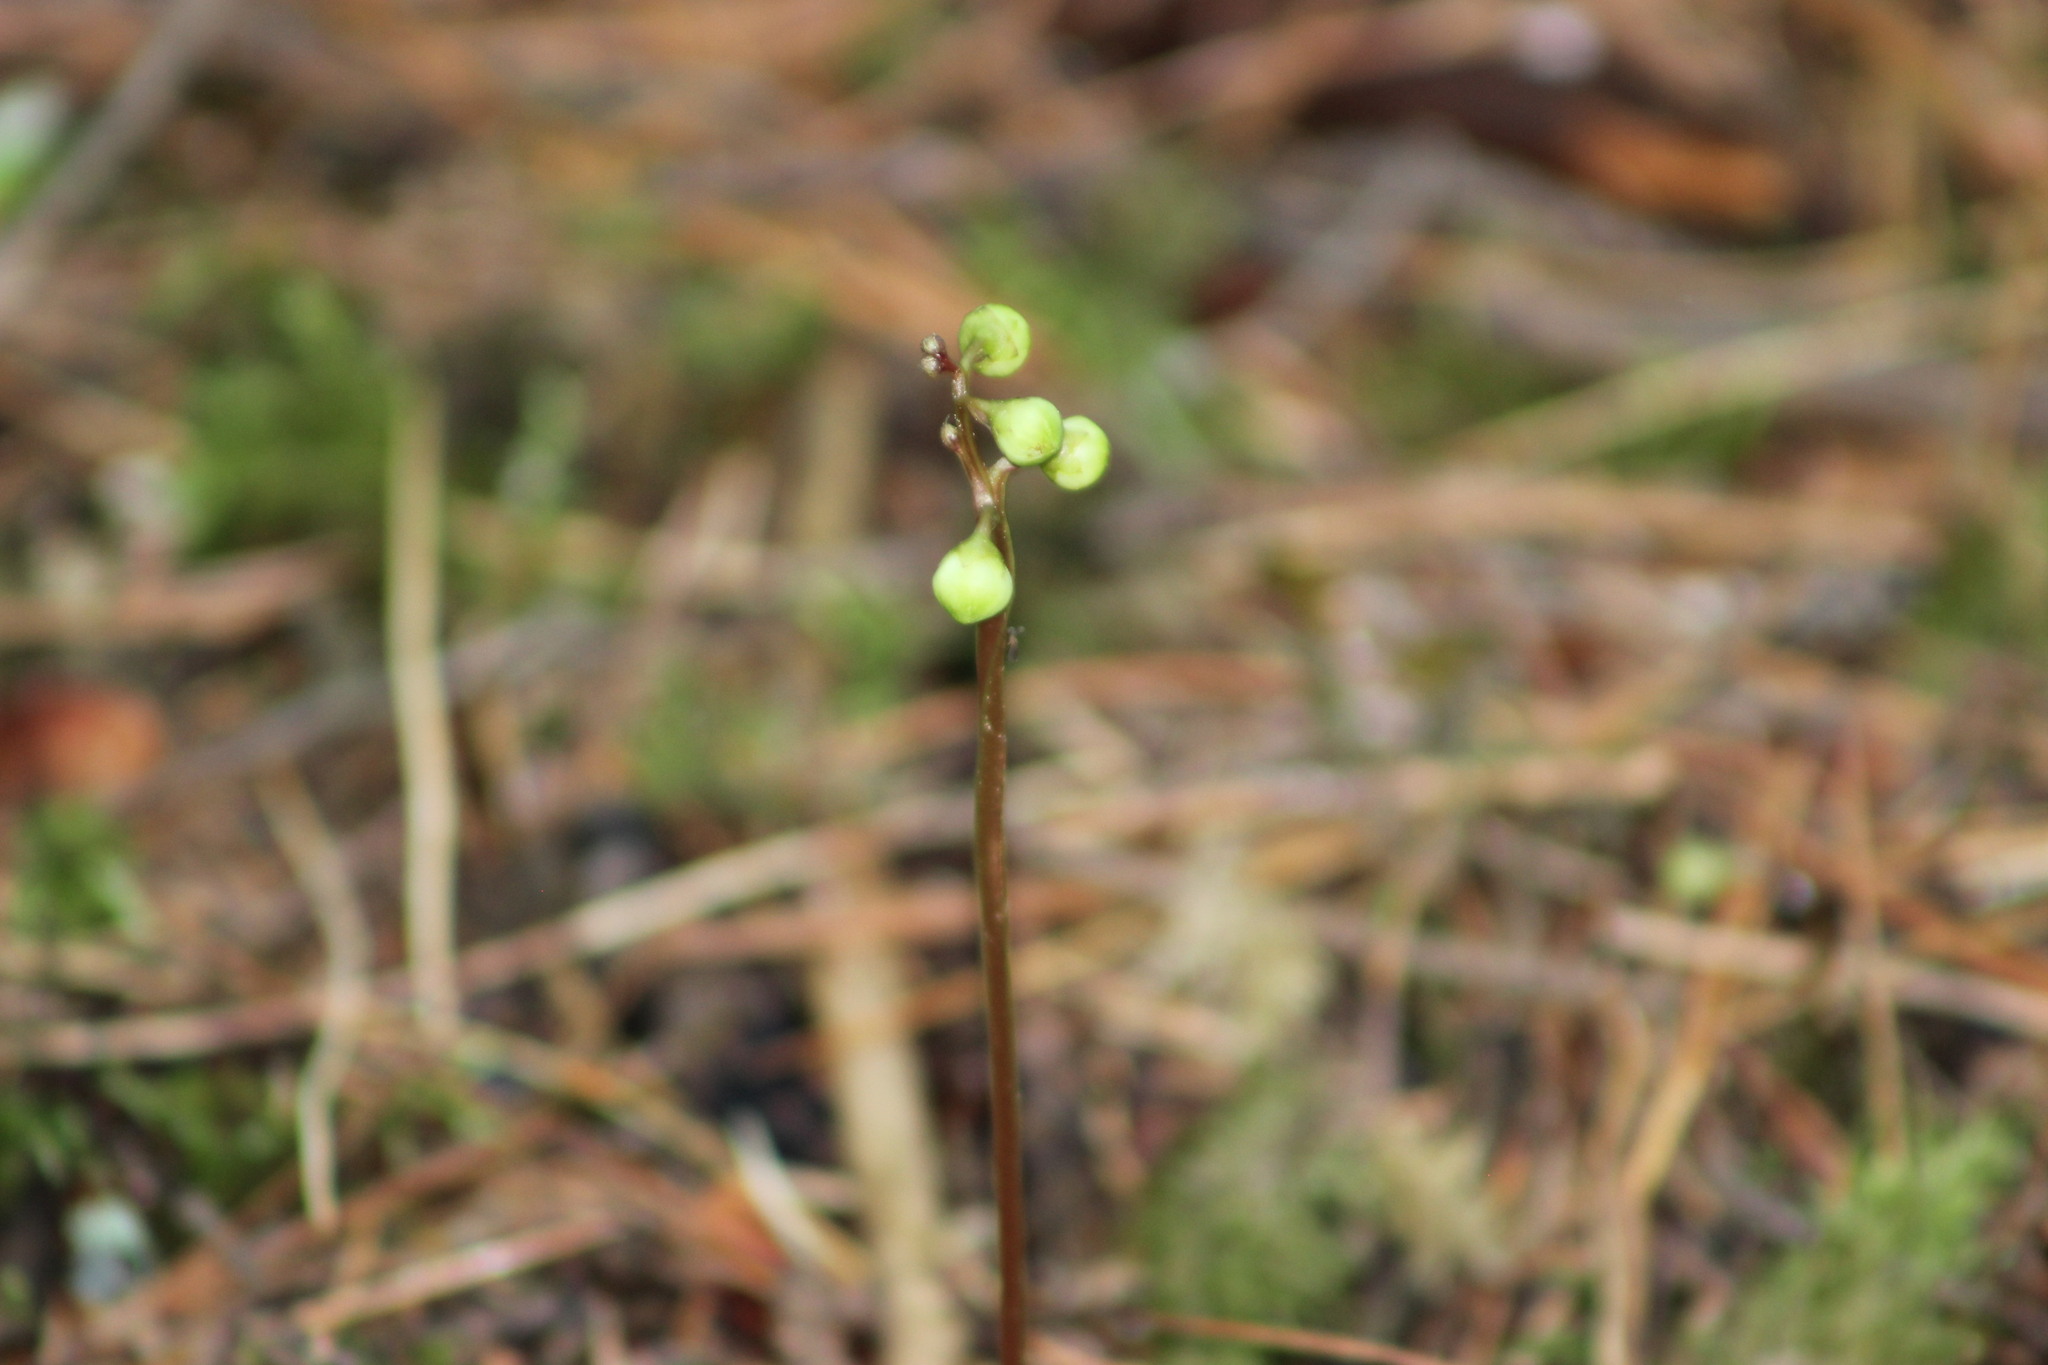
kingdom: Plantae
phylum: Tracheophyta
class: Magnoliopsida
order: Ericales
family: Ericaceae
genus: Pyrola
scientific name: Pyrola chlorantha
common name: Green wintergreen
